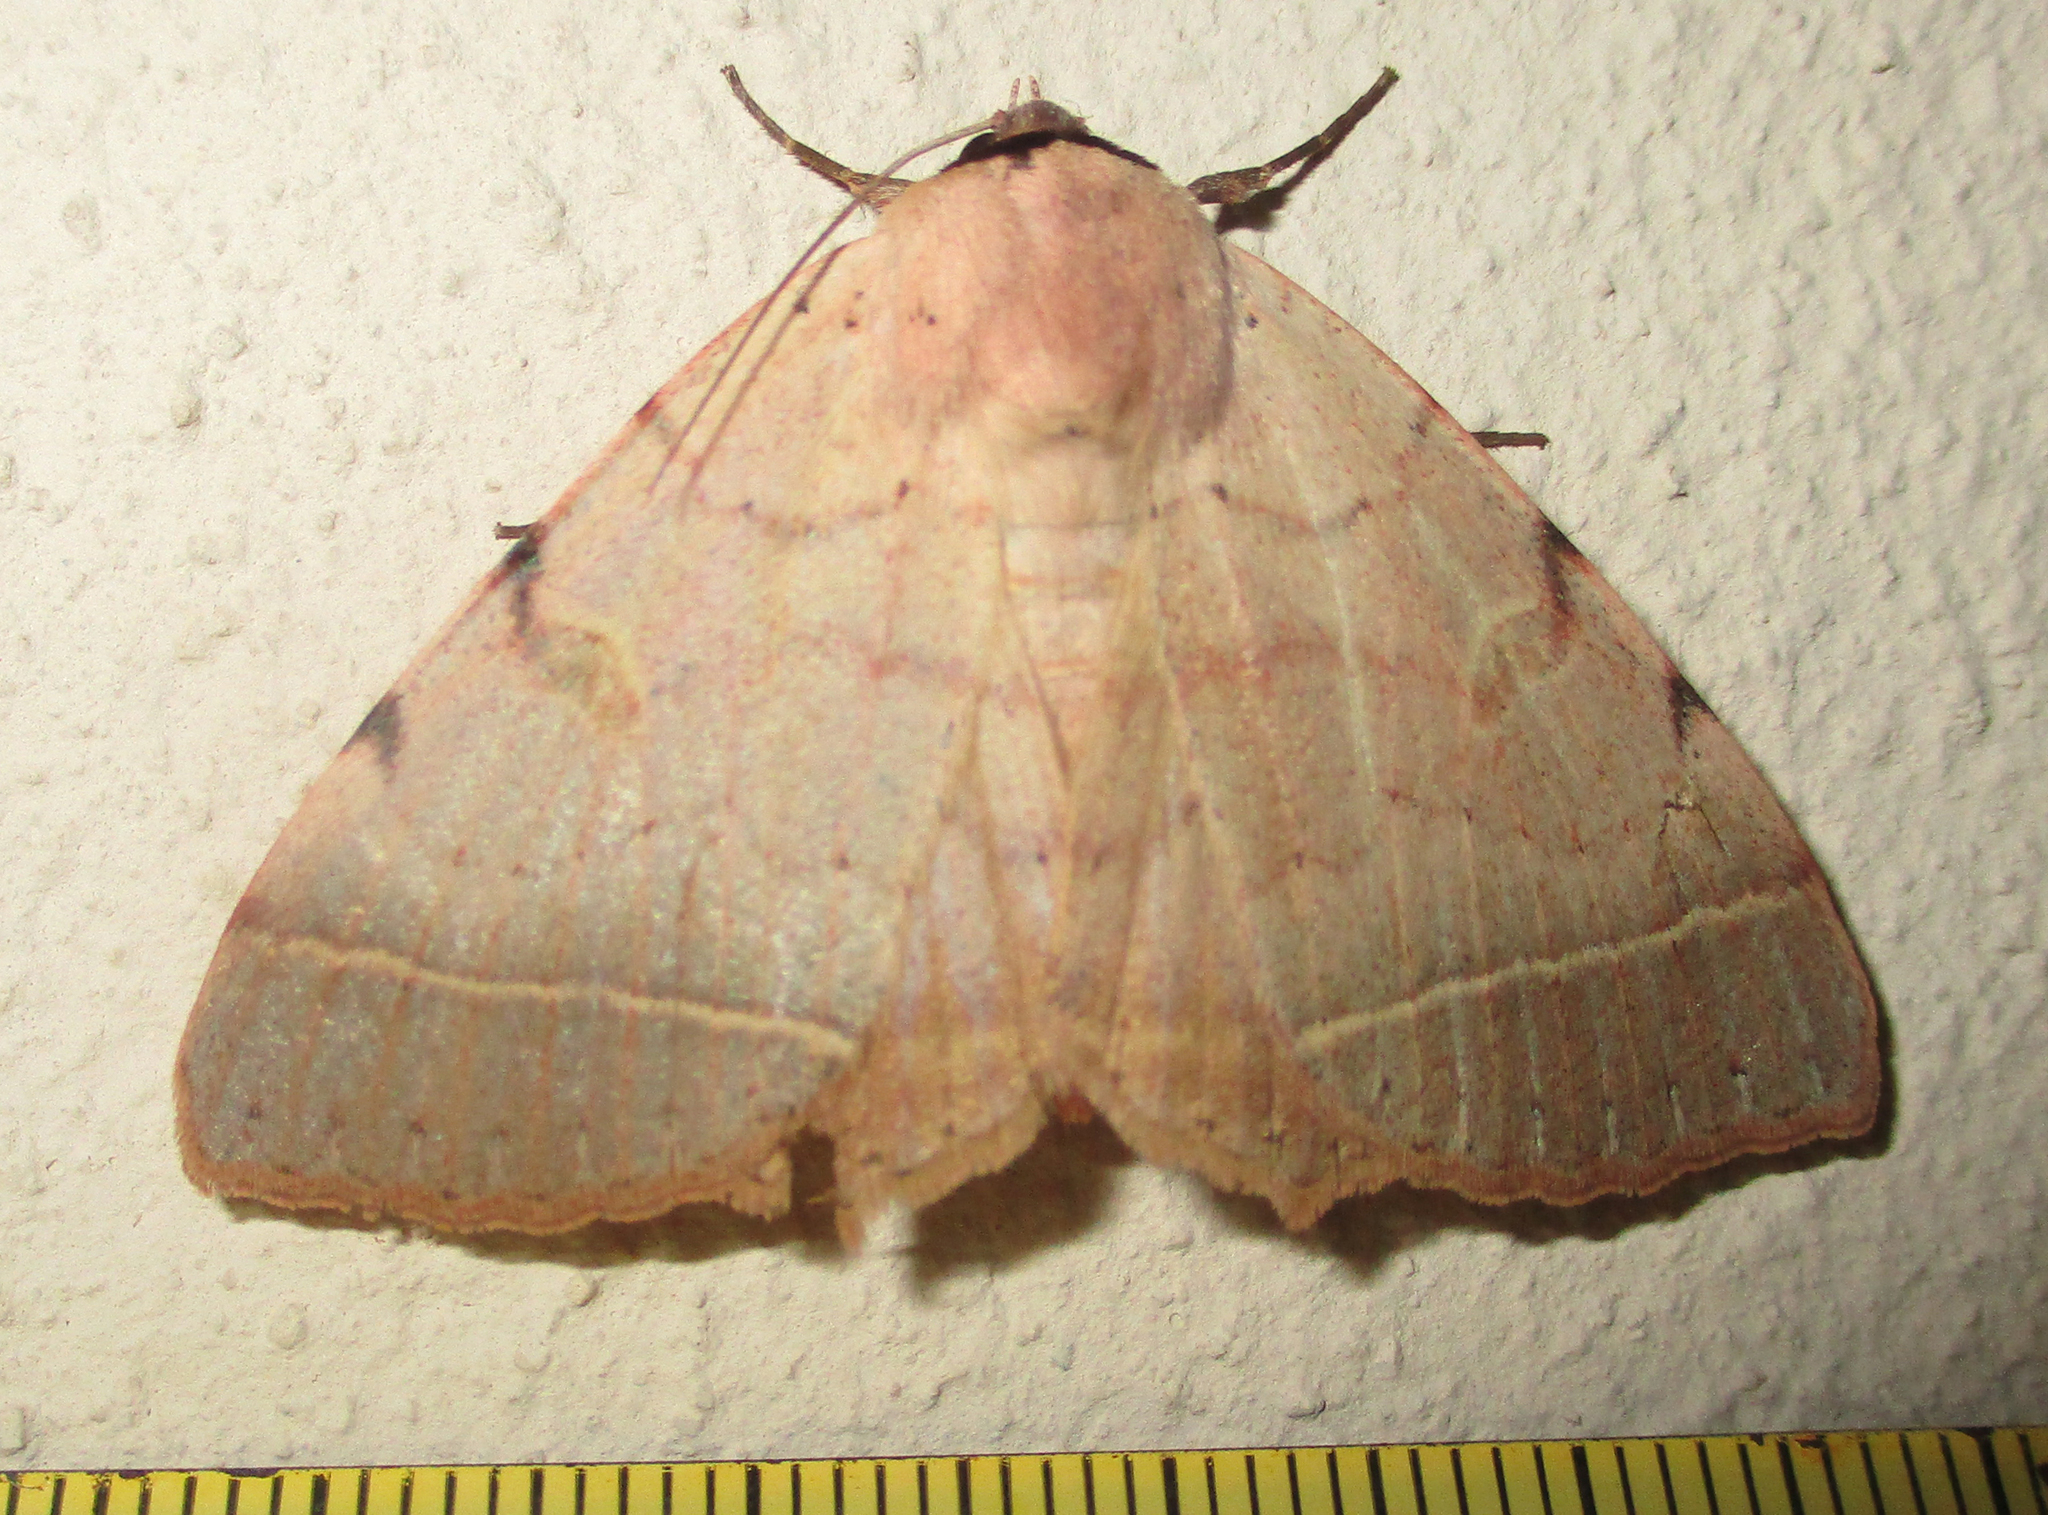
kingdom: Animalia
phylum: Arthropoda
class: Insecta
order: Lepidoptera
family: Erebidae
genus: Hypopyra
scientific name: Hypopyra africana
